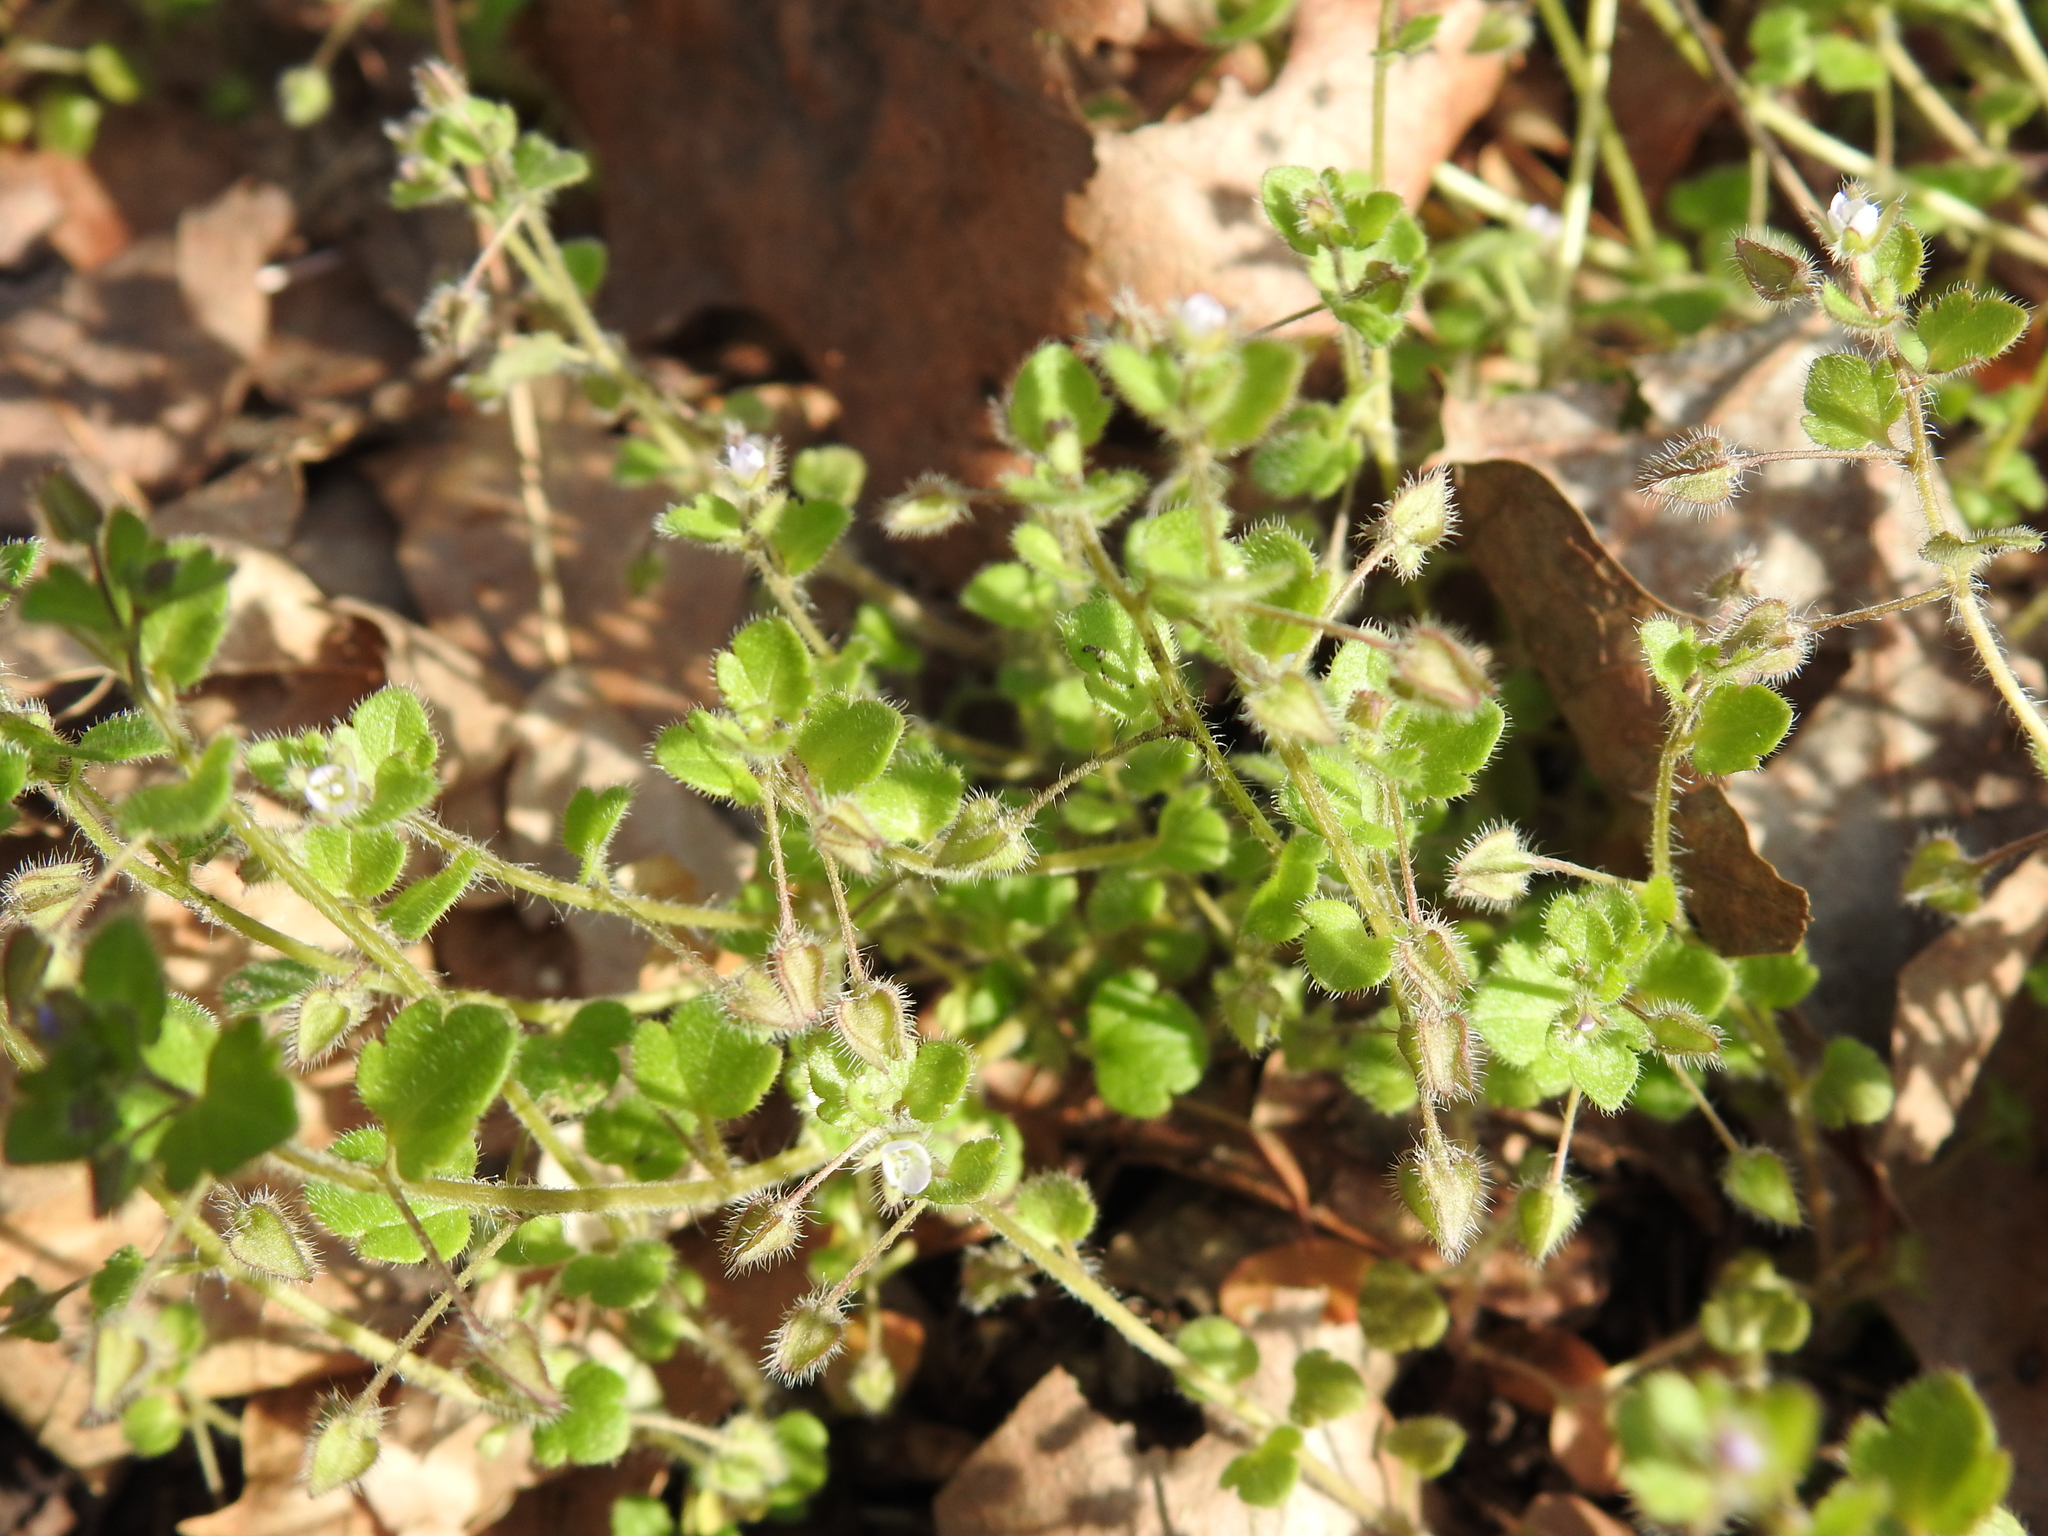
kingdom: Plantae
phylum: Tracheophyta
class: Magnoliopsida
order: Lamiales
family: Plantaginaceae
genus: Veronica
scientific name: Veronica sublobata
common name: False ivy-leaved speedwell
